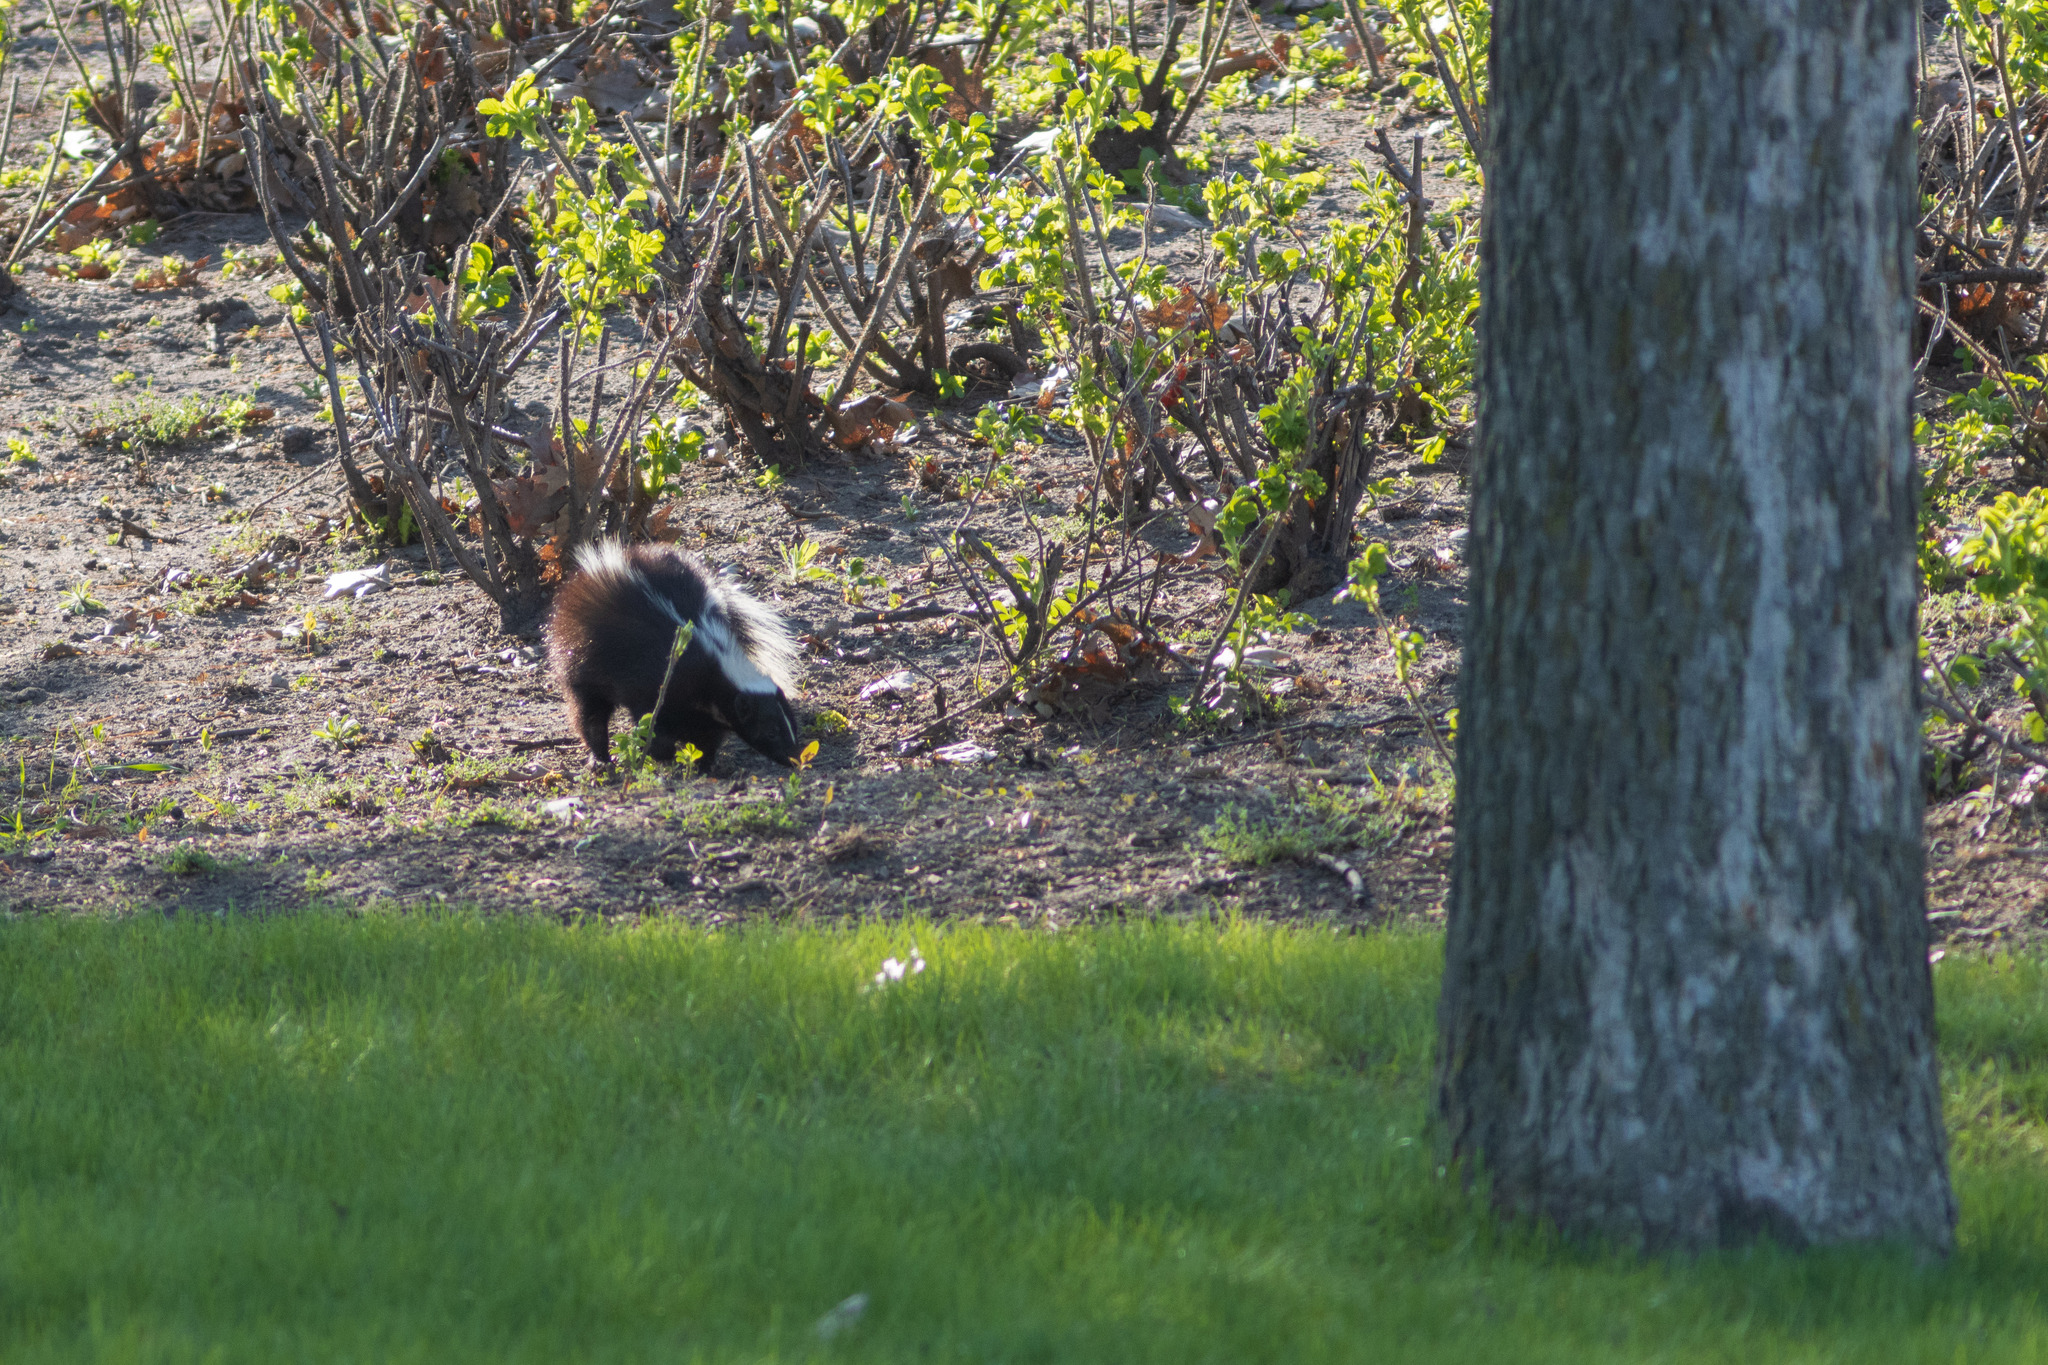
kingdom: Animalia
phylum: Chordata
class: Mammalia
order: Carnivora
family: Mephitidae
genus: Mephitis
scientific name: Mephitis mephitis
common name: Striped skunk
